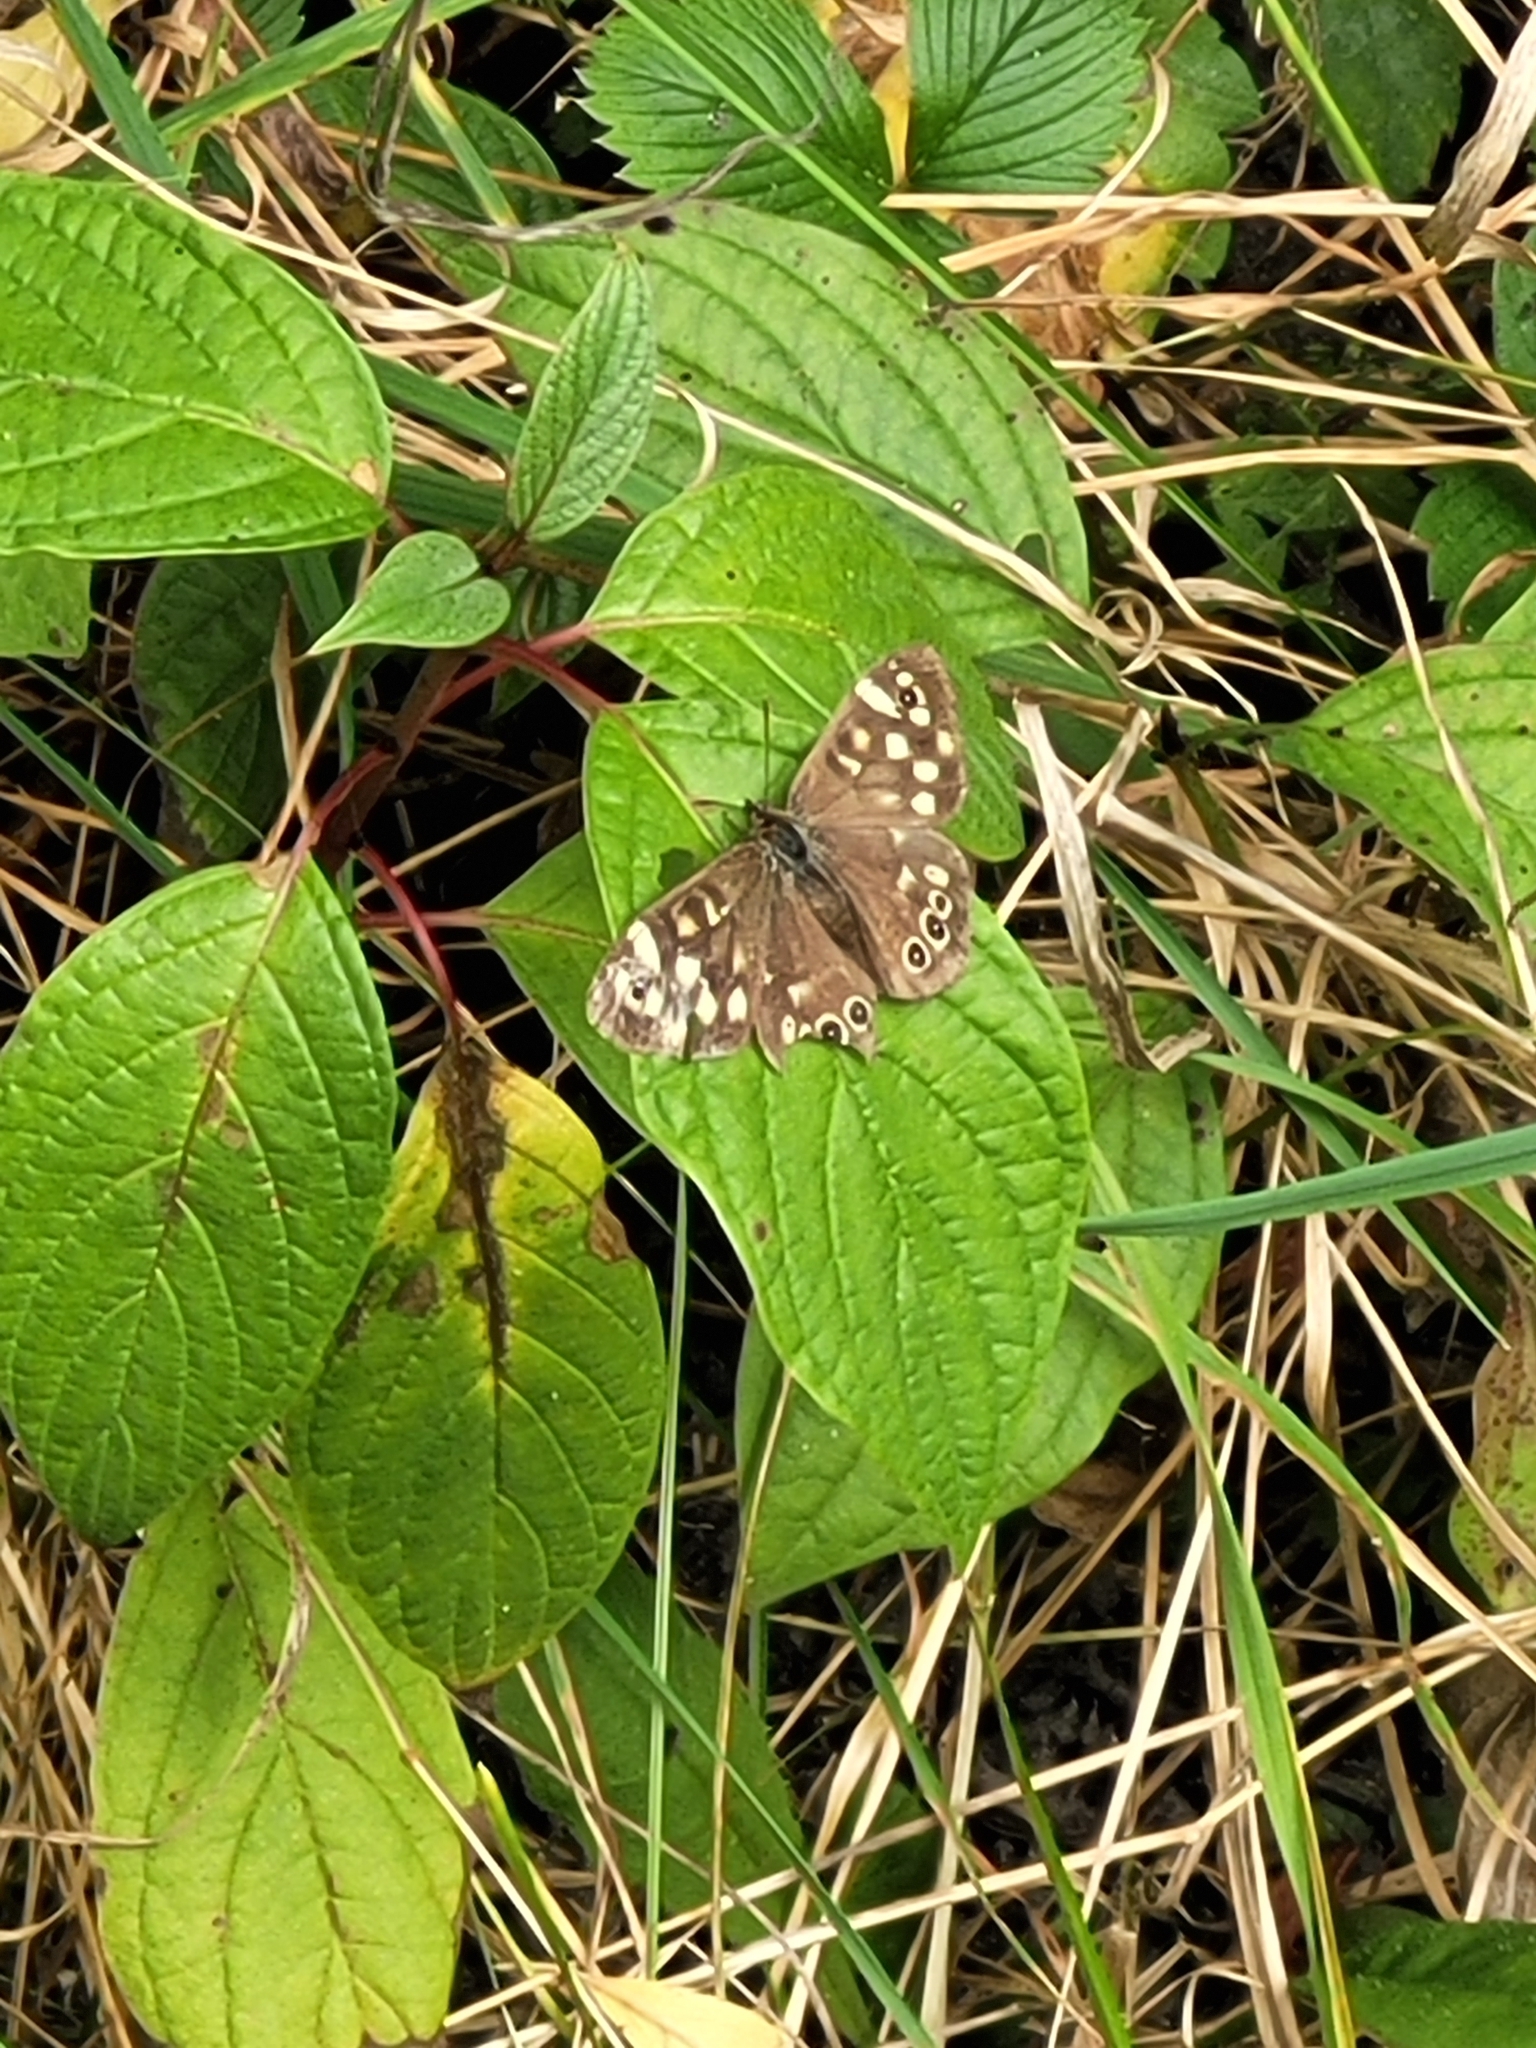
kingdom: Animalia
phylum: Arthropoda
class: Insecta
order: Lepidoptera
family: Nymphalidae
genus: Pararge
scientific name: Pararge aegeria
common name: Speckled wood
